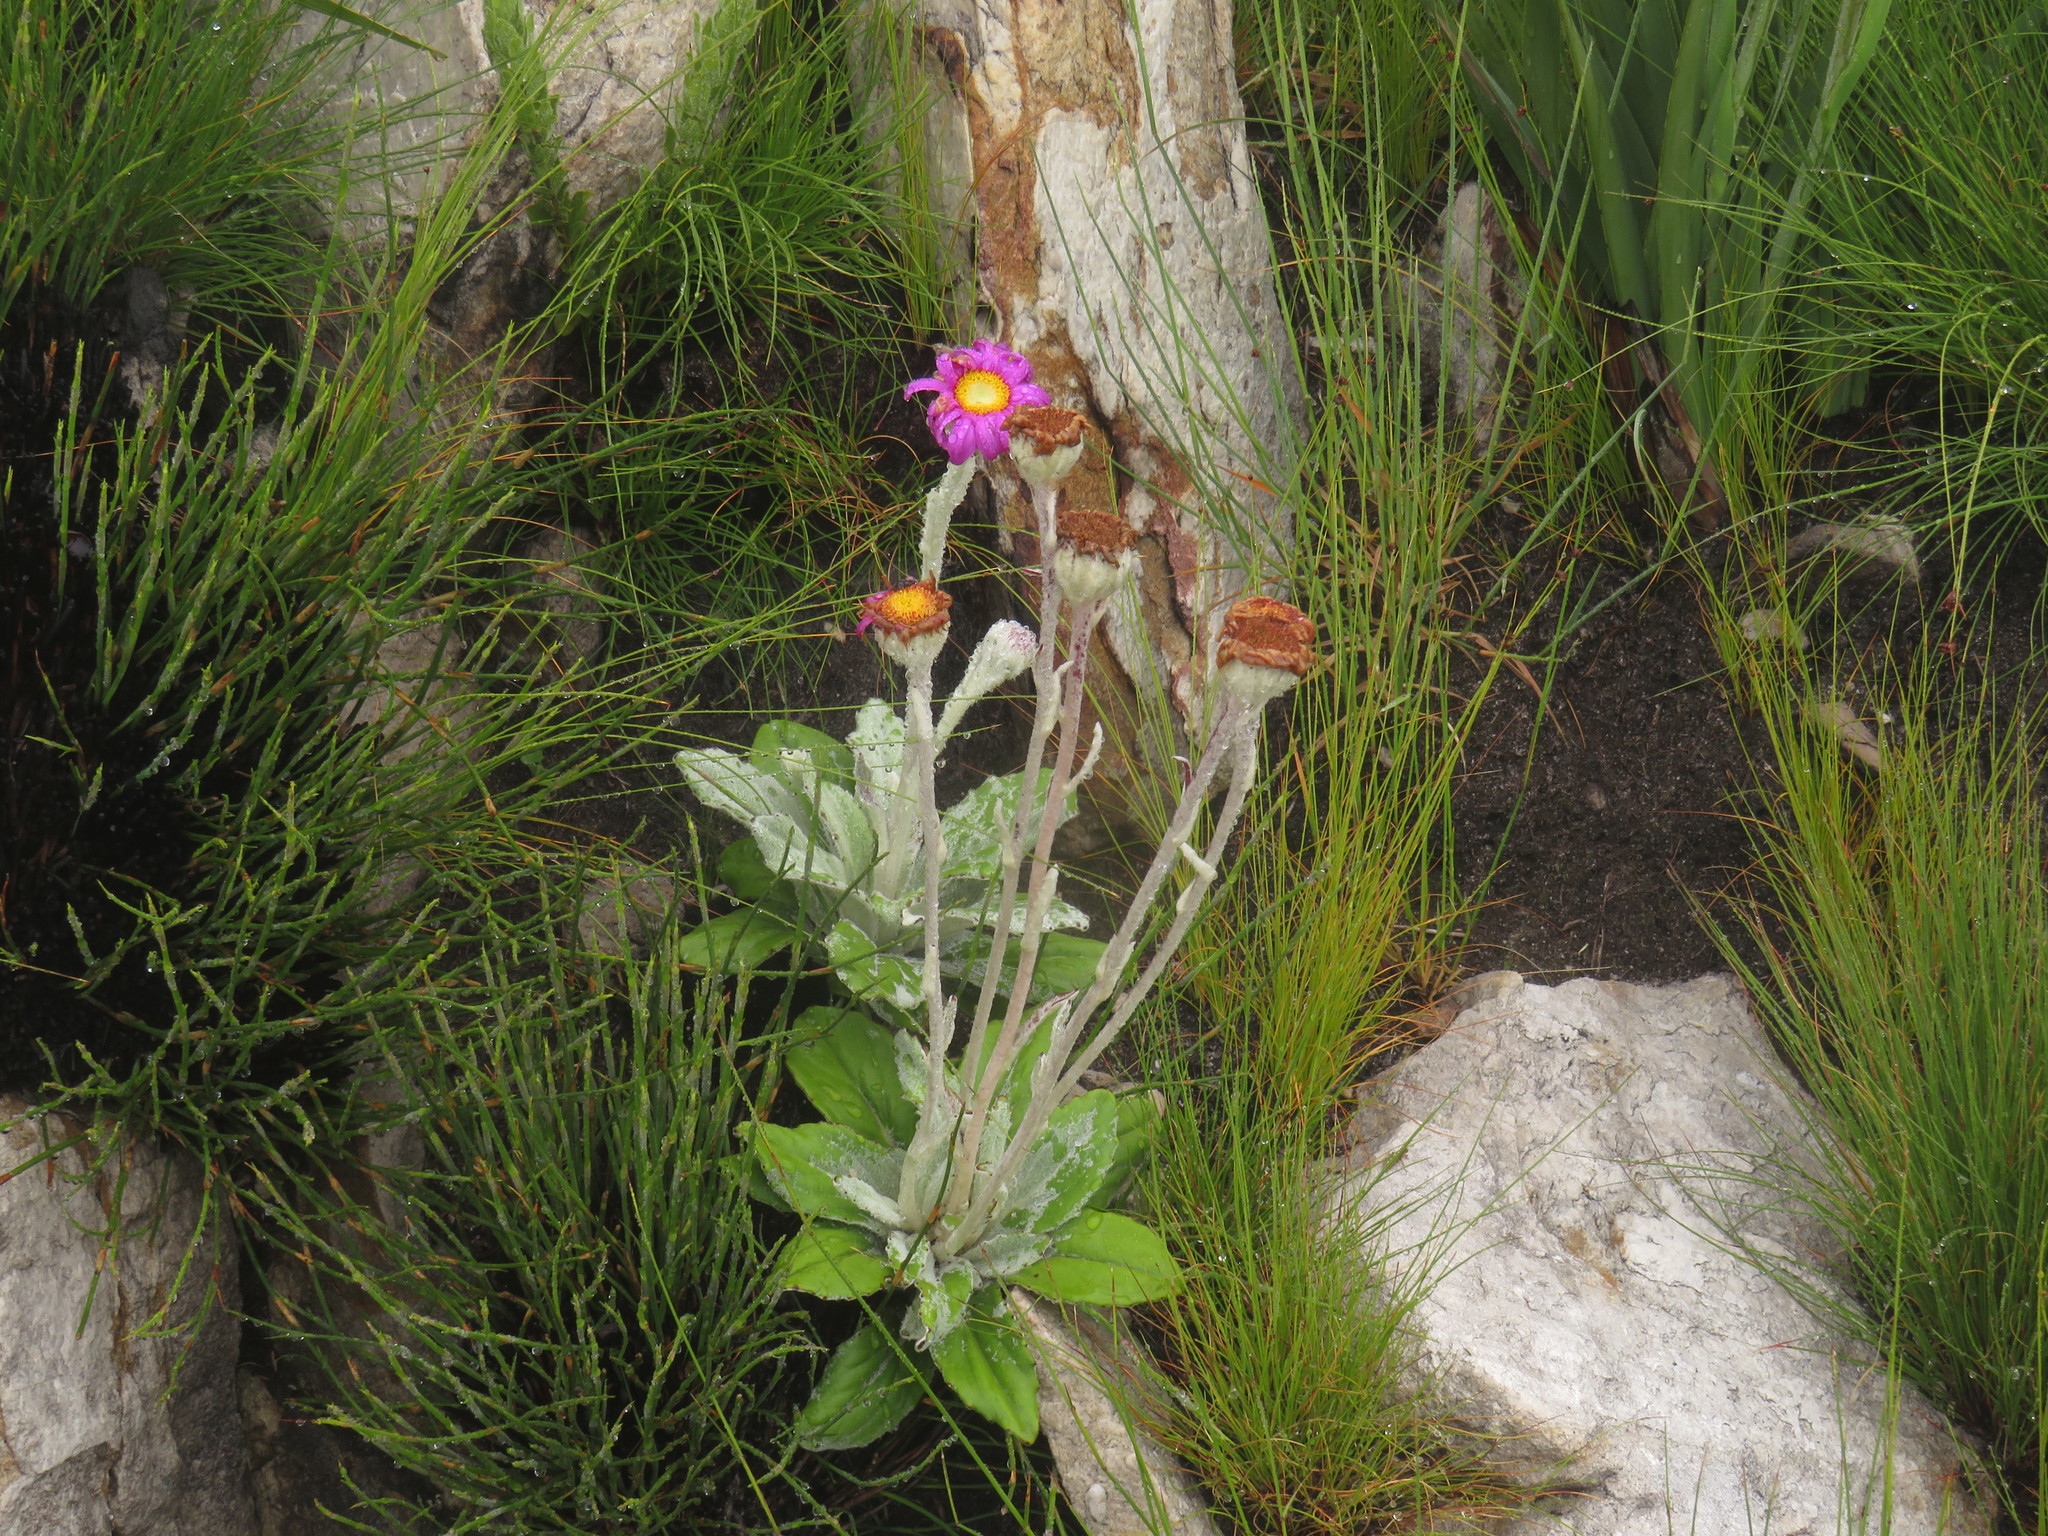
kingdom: Plantae
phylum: Tracheophyta
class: Magnoliopsida
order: Asterales
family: Asteraceae
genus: Mairia
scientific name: Mairia robusta
